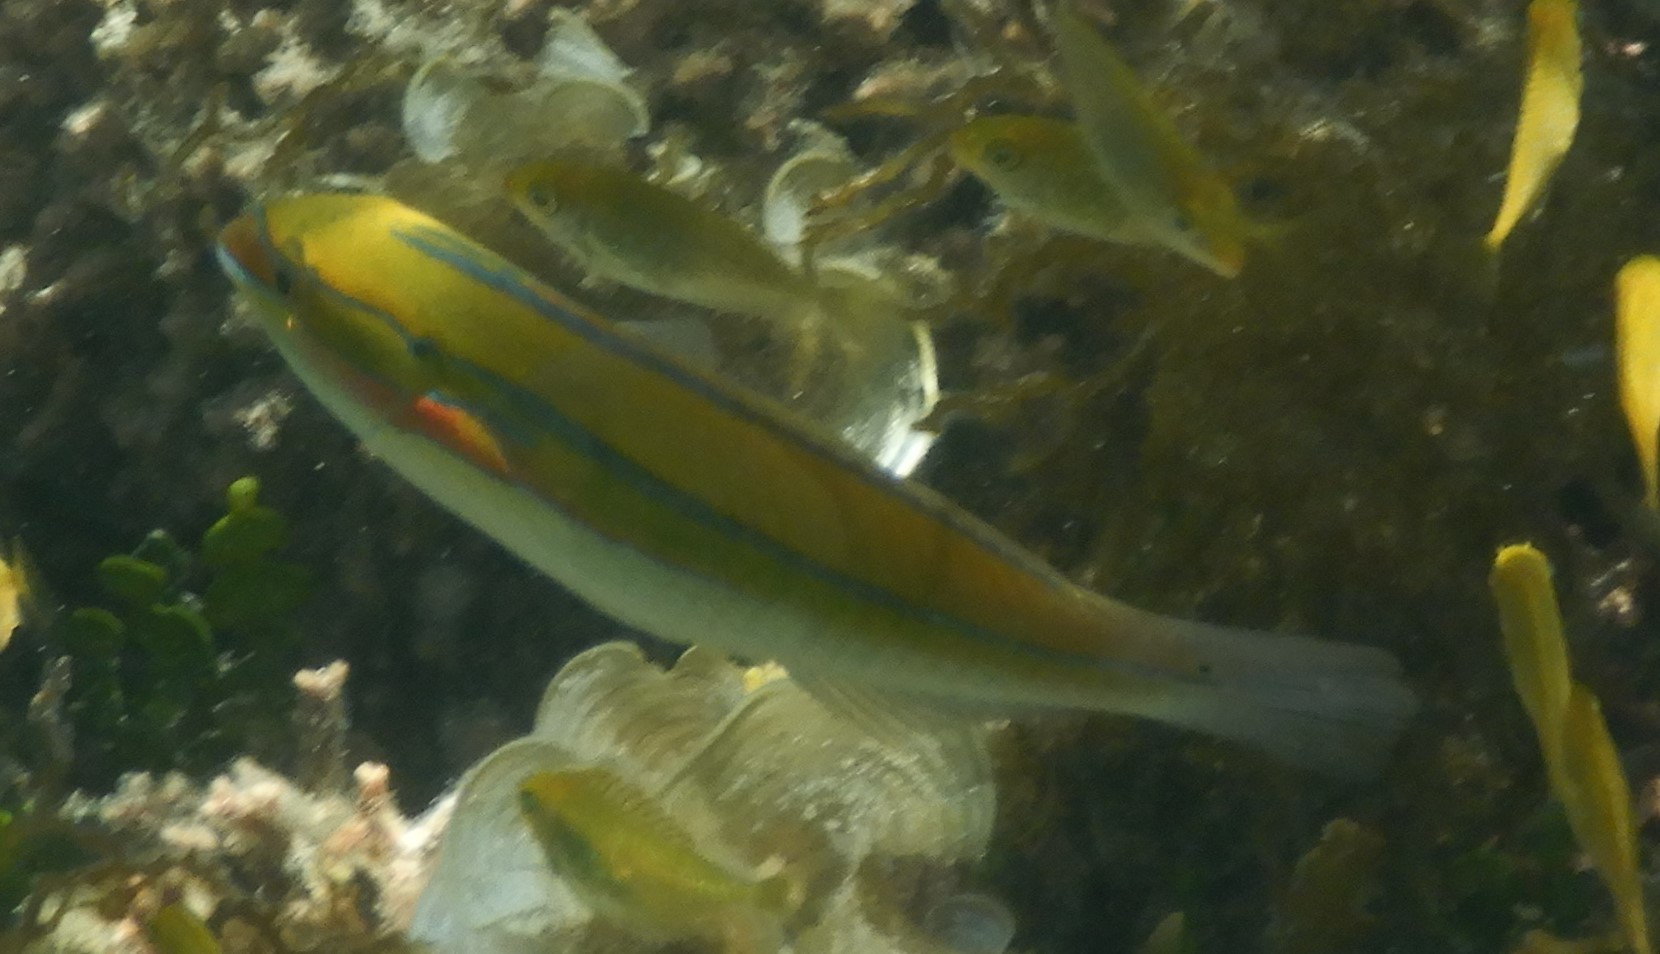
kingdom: Animalia
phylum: Chordata
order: Perciformes
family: Labridae
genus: Stethojulis
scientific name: Stethojulis strigiventer
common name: Three-ribbon wrasse
